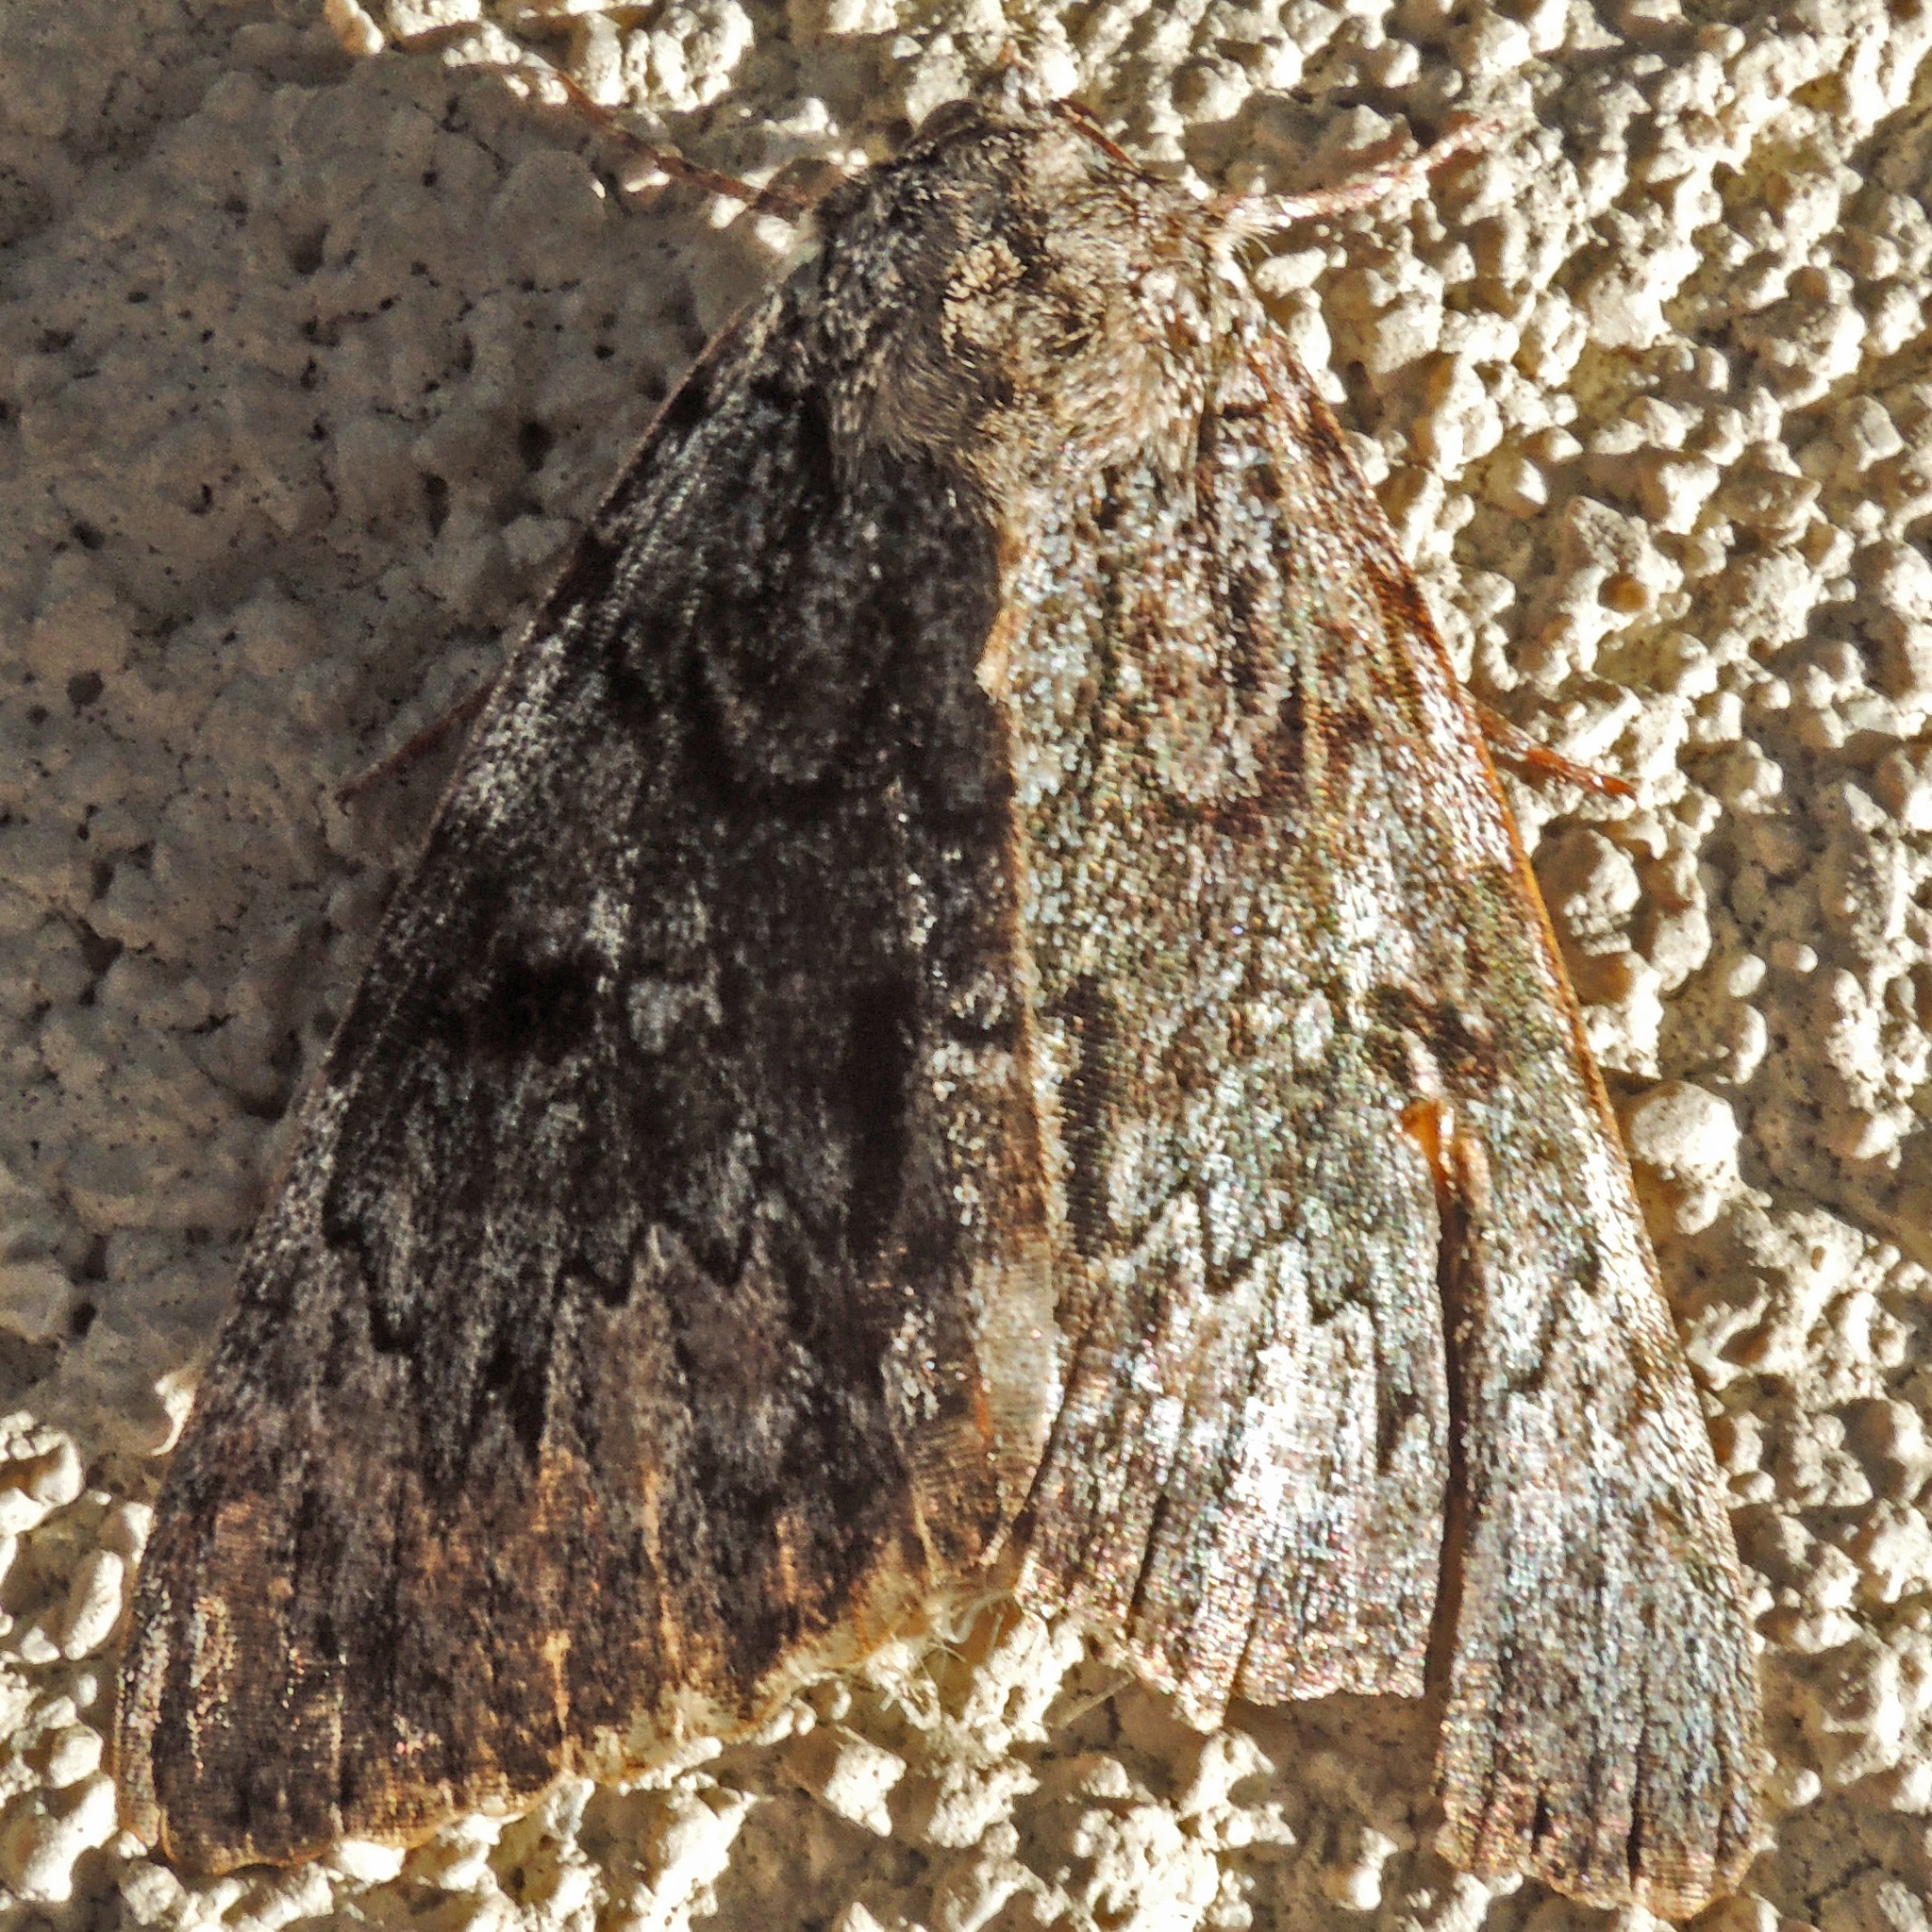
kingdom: Animalia
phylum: Arthropoda
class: Insecta
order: Lepidoptera
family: Erebidae
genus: Catocala
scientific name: Catocala palaeogama
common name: Oldwife underwing
